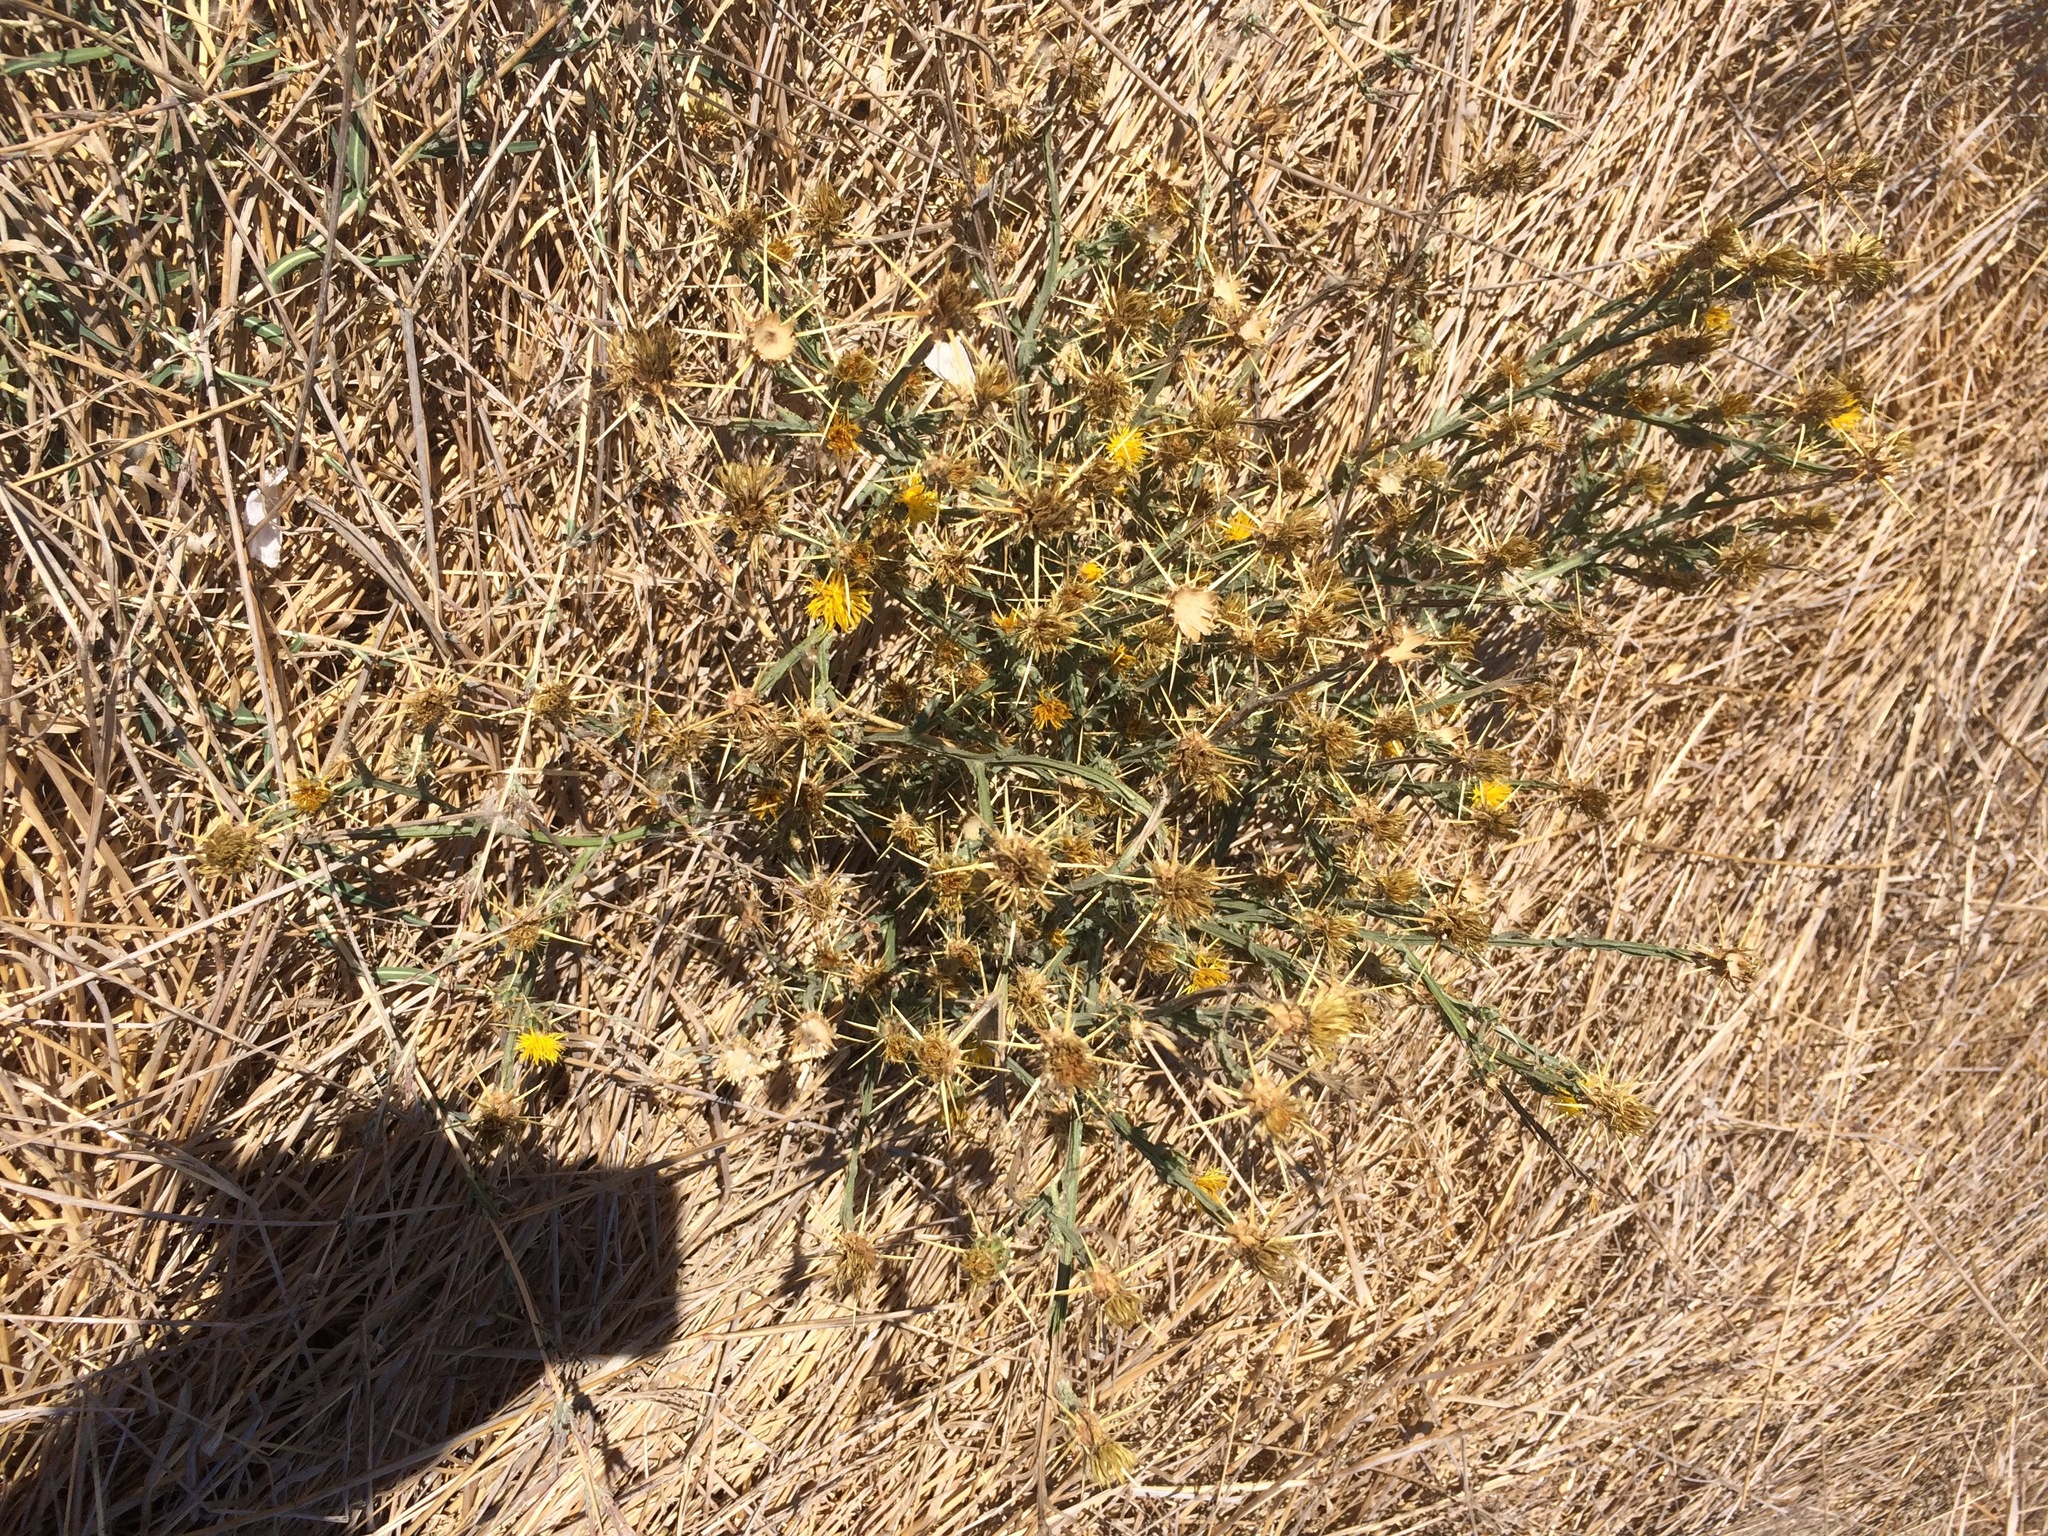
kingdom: Plantae
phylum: Tracheophyta
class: Magnoliopsida
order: Asterales
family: Asteraceae
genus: Centaurea
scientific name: Centaurea solstitialis
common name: Yellow star-thistle
